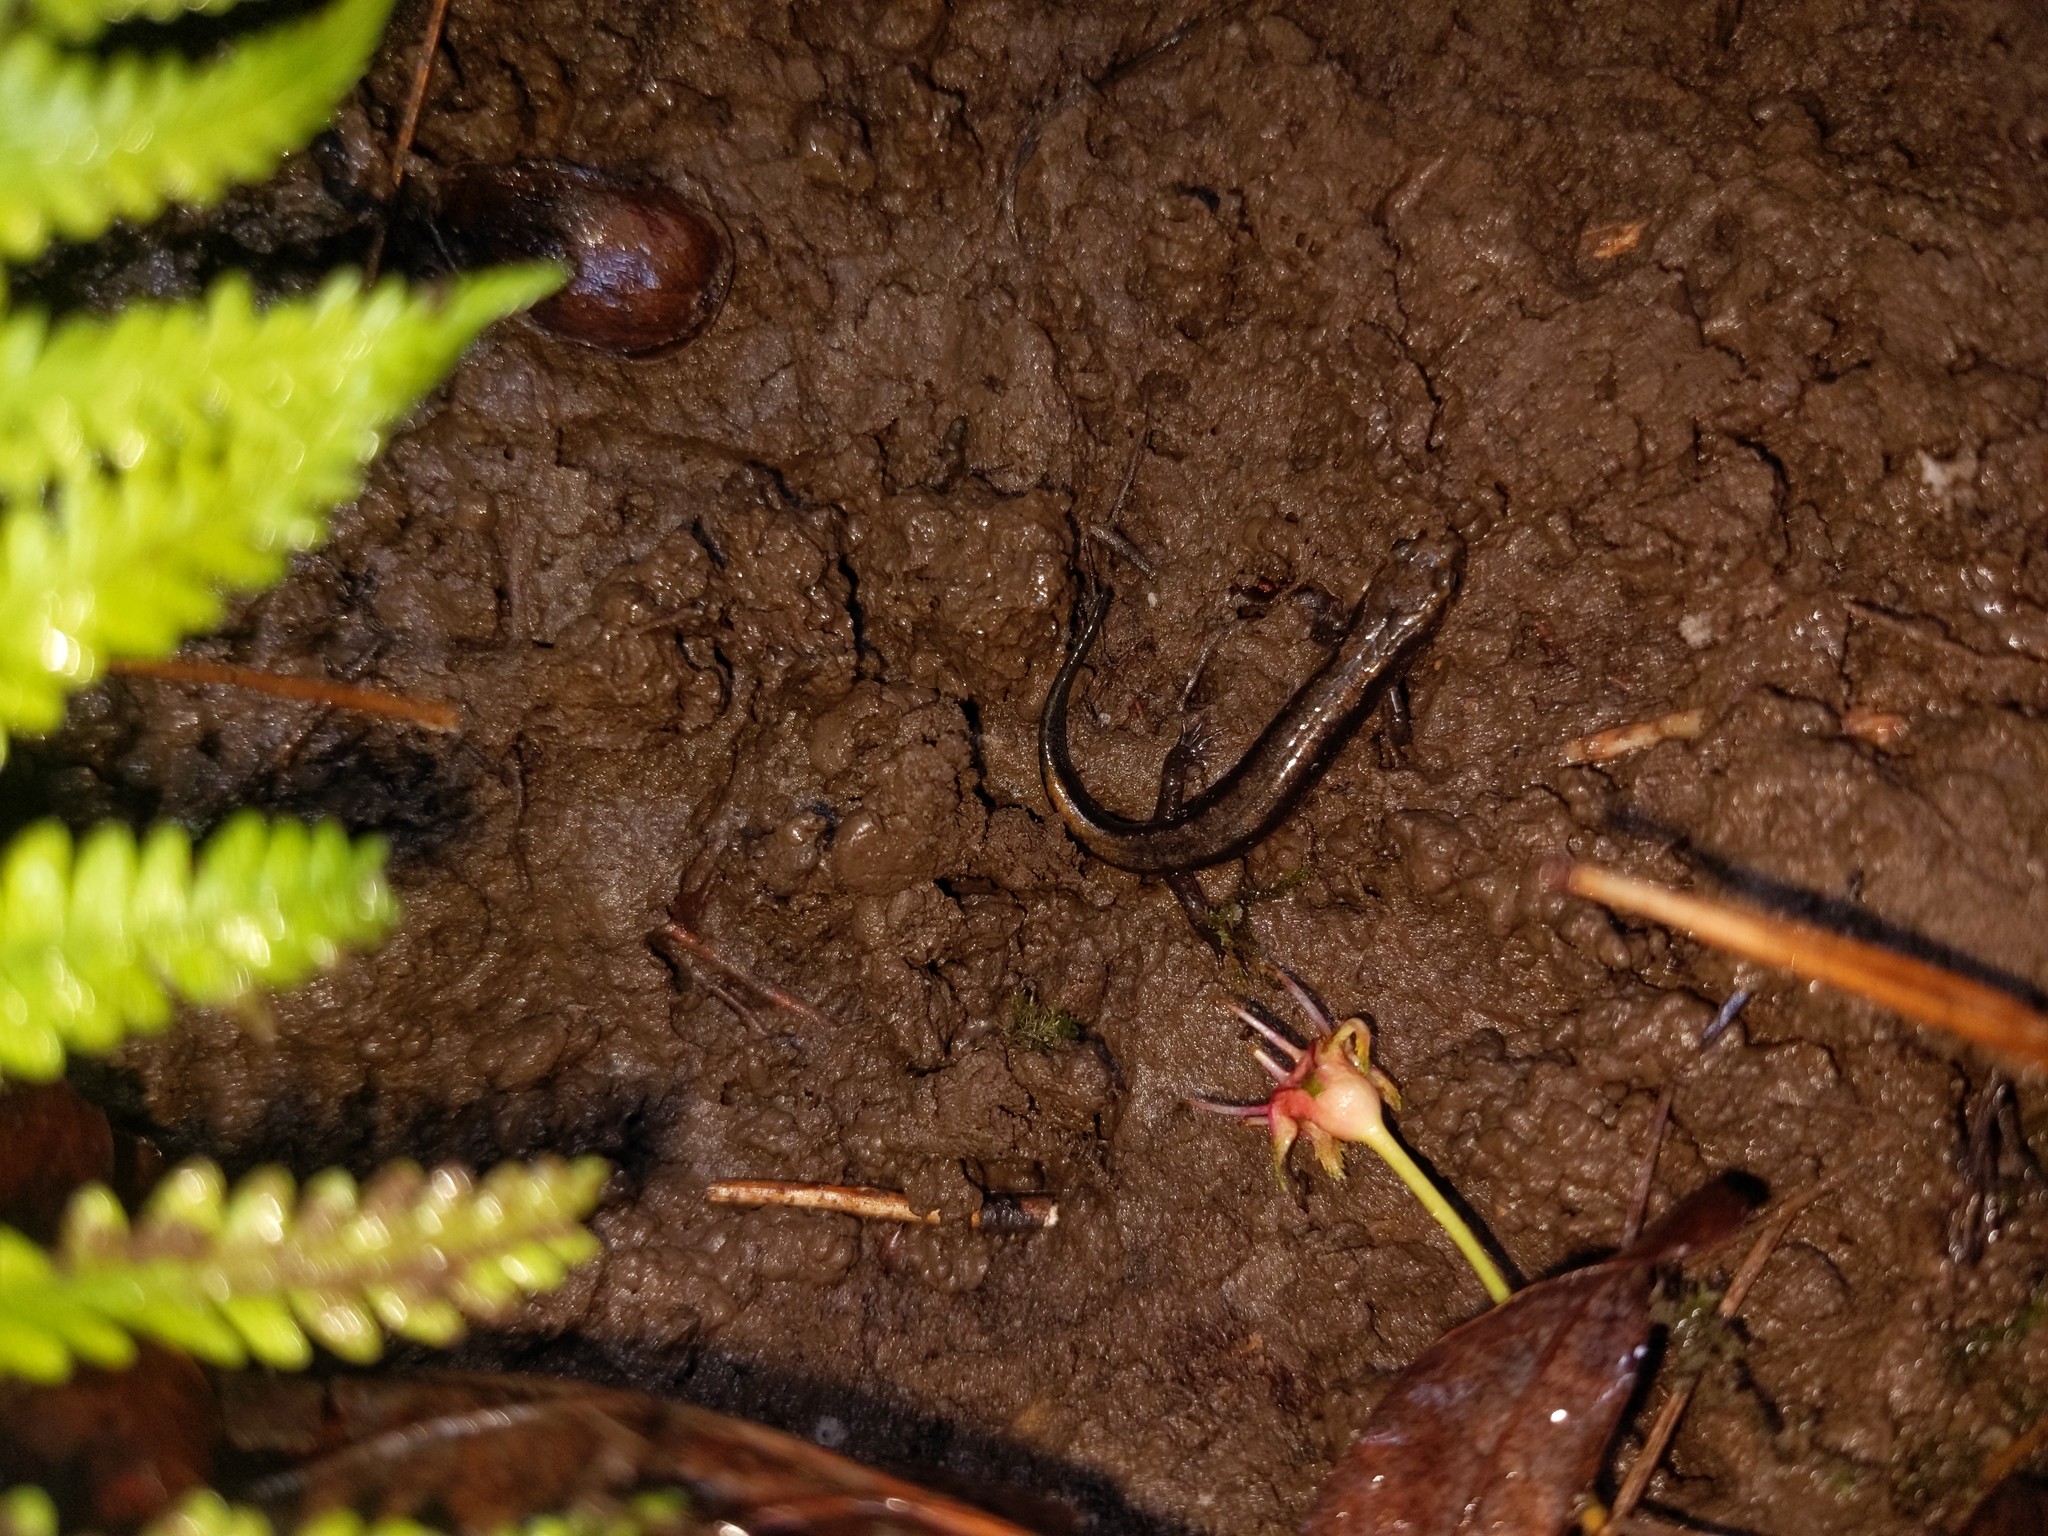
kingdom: Animalia
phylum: Chordata
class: Amphibia
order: Caudata
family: Plethodontidae
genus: Desmognathus
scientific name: Desmognathus ochrophaeus
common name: Allegheny mountain dusky salamander
